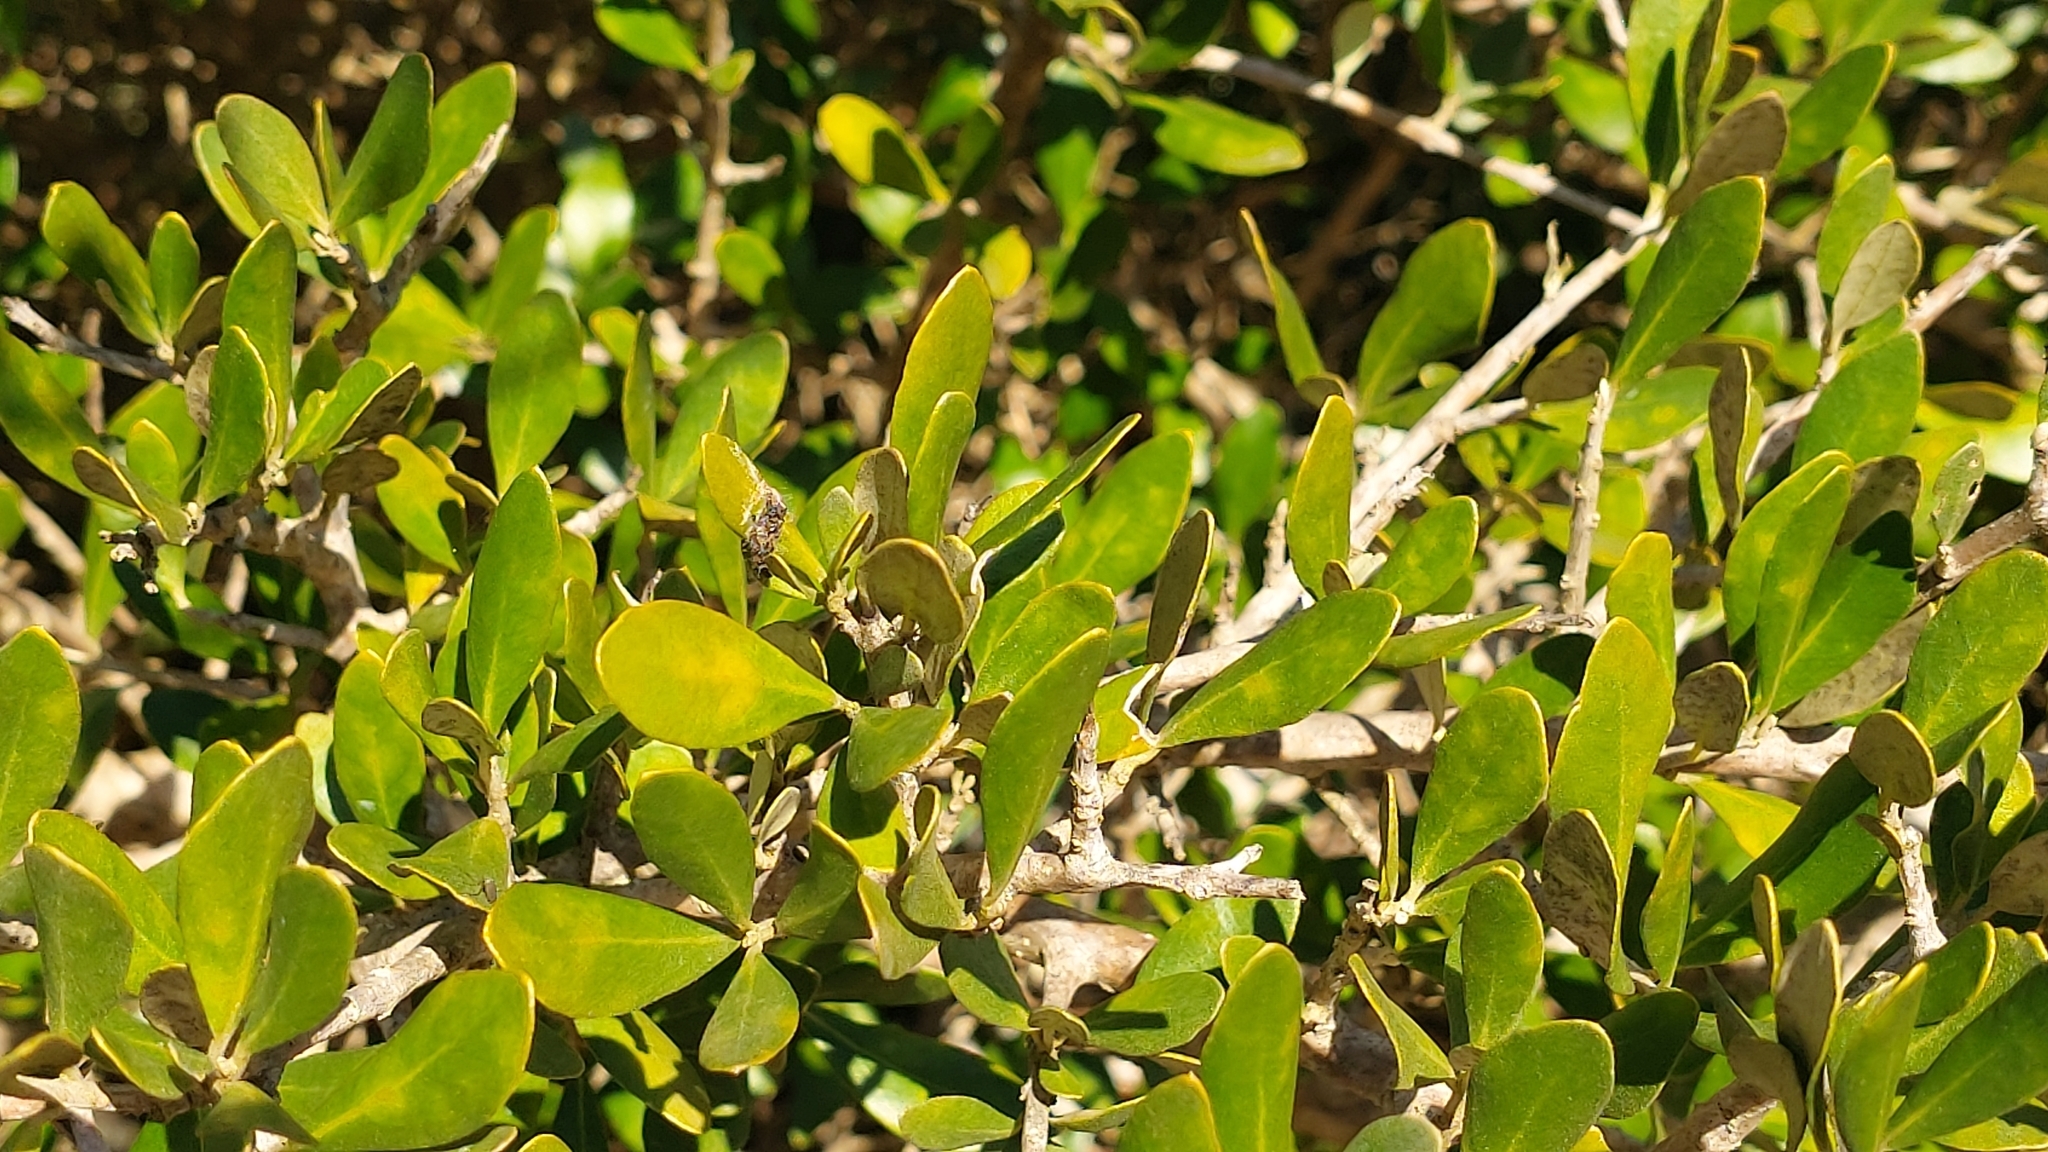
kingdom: Plantae
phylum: Tracheophyta
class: Magnoliopsida
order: Lamiales
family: Oleaceae
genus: Olea
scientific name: Olea europaea
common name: Olive
